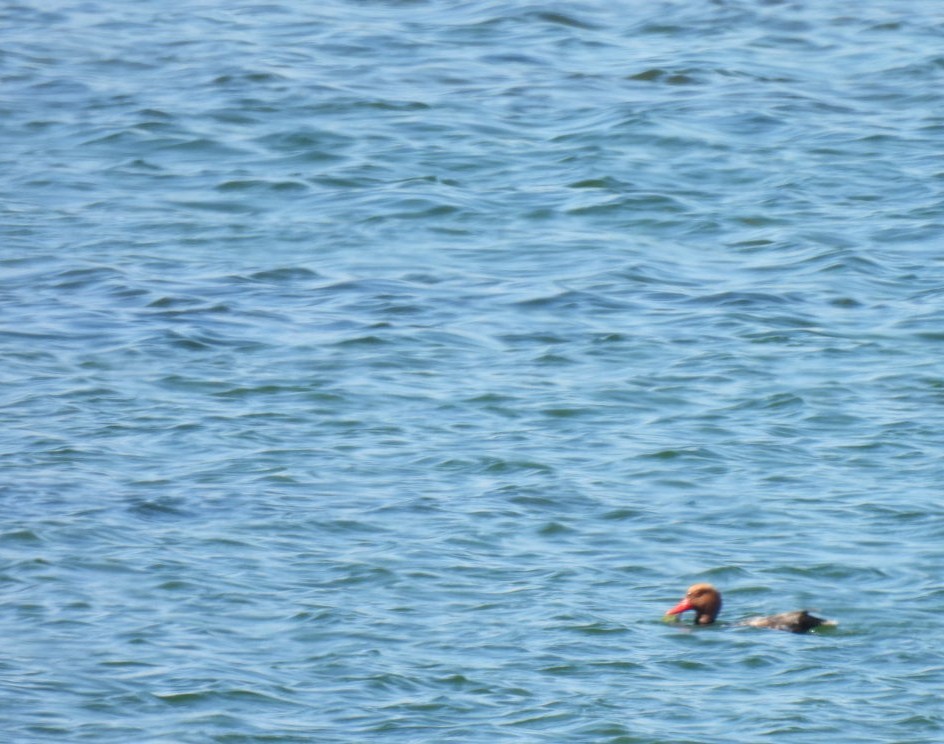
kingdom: Animalia
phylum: Chordata
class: Aves
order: Anseriformes
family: Anatidae
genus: Netta
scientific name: Netta rufina
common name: Red-crested pochard
